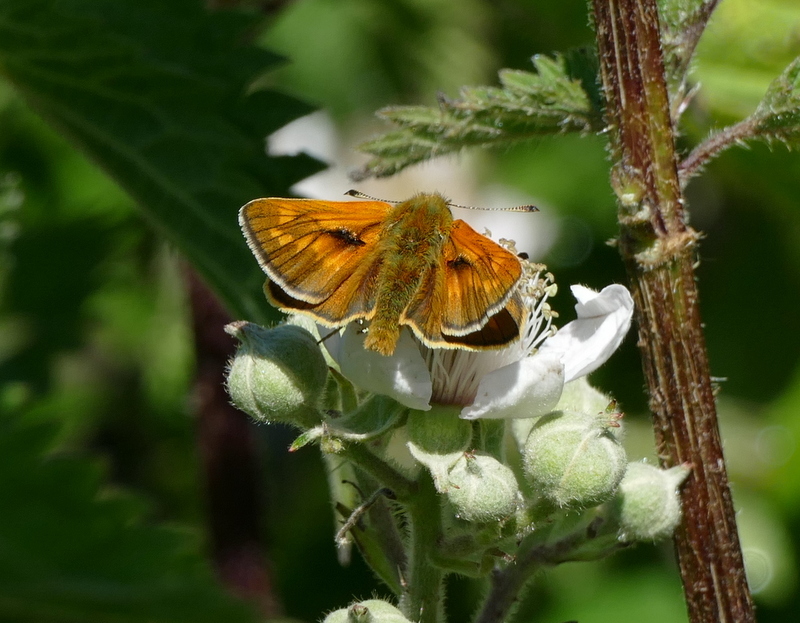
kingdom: Animalia
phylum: Arthropoda
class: Insecta
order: Lepidoptera
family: Hesperiidae
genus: Ochlodes
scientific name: Ochlodes venata
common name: Large skipper
